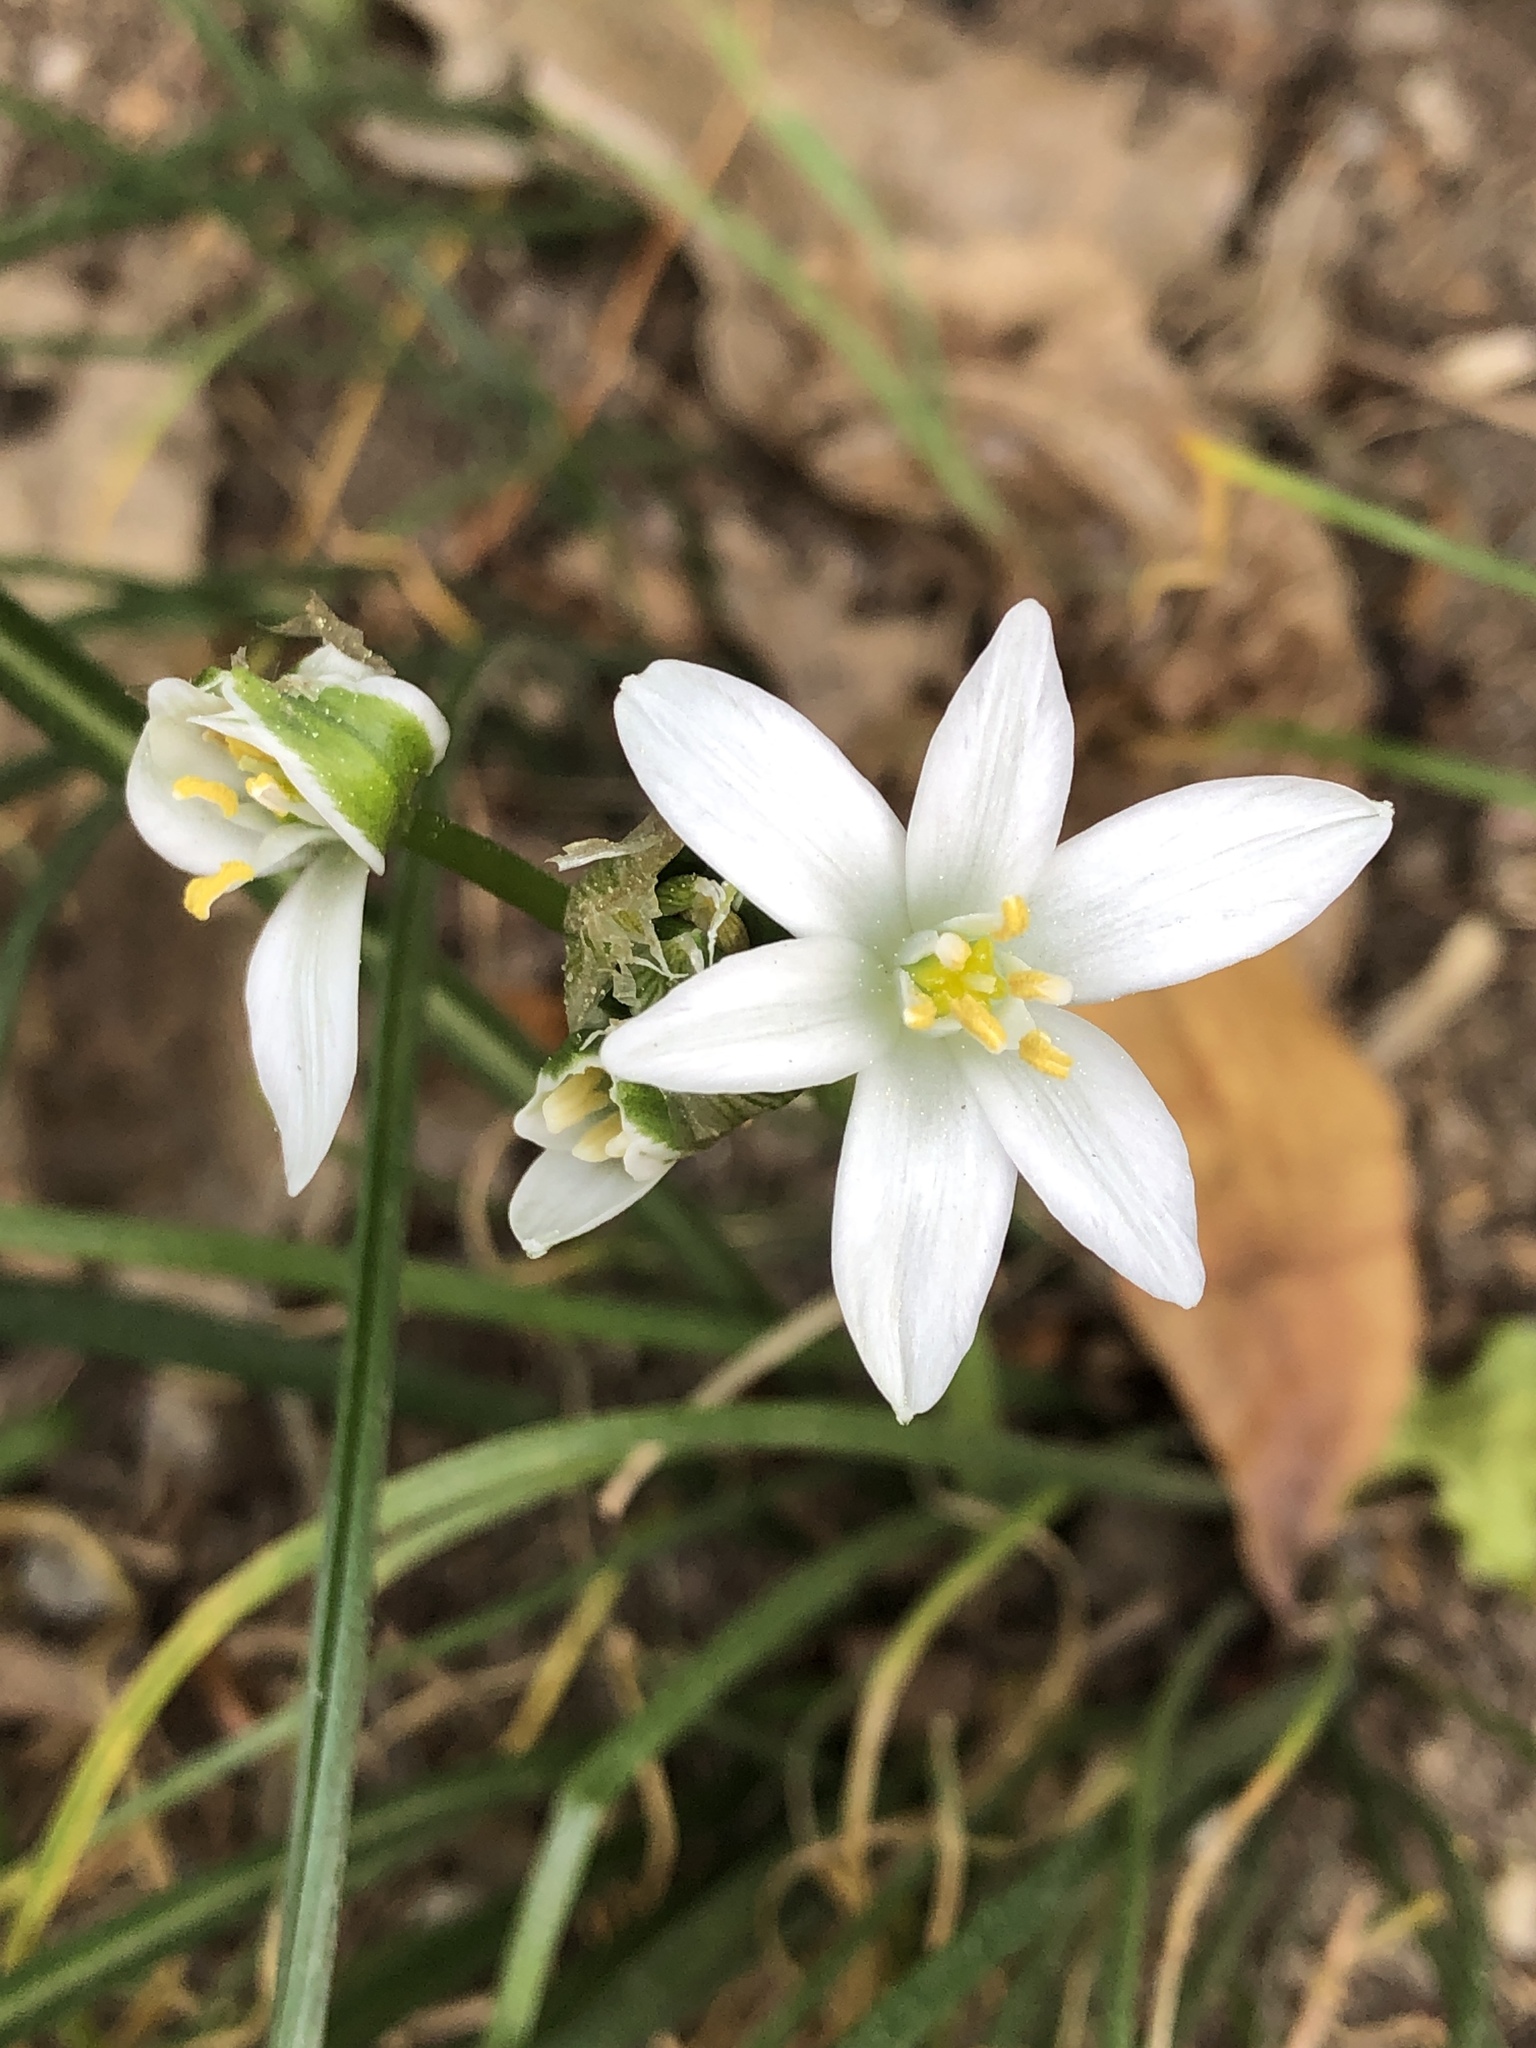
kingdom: Plantae
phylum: Tracheophyta
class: Liliopsida
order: Asparagales
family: Asparagaceae
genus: Ornithogalum
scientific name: Ornithogalum umbellatum
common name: Garden star-of-bethlehem
